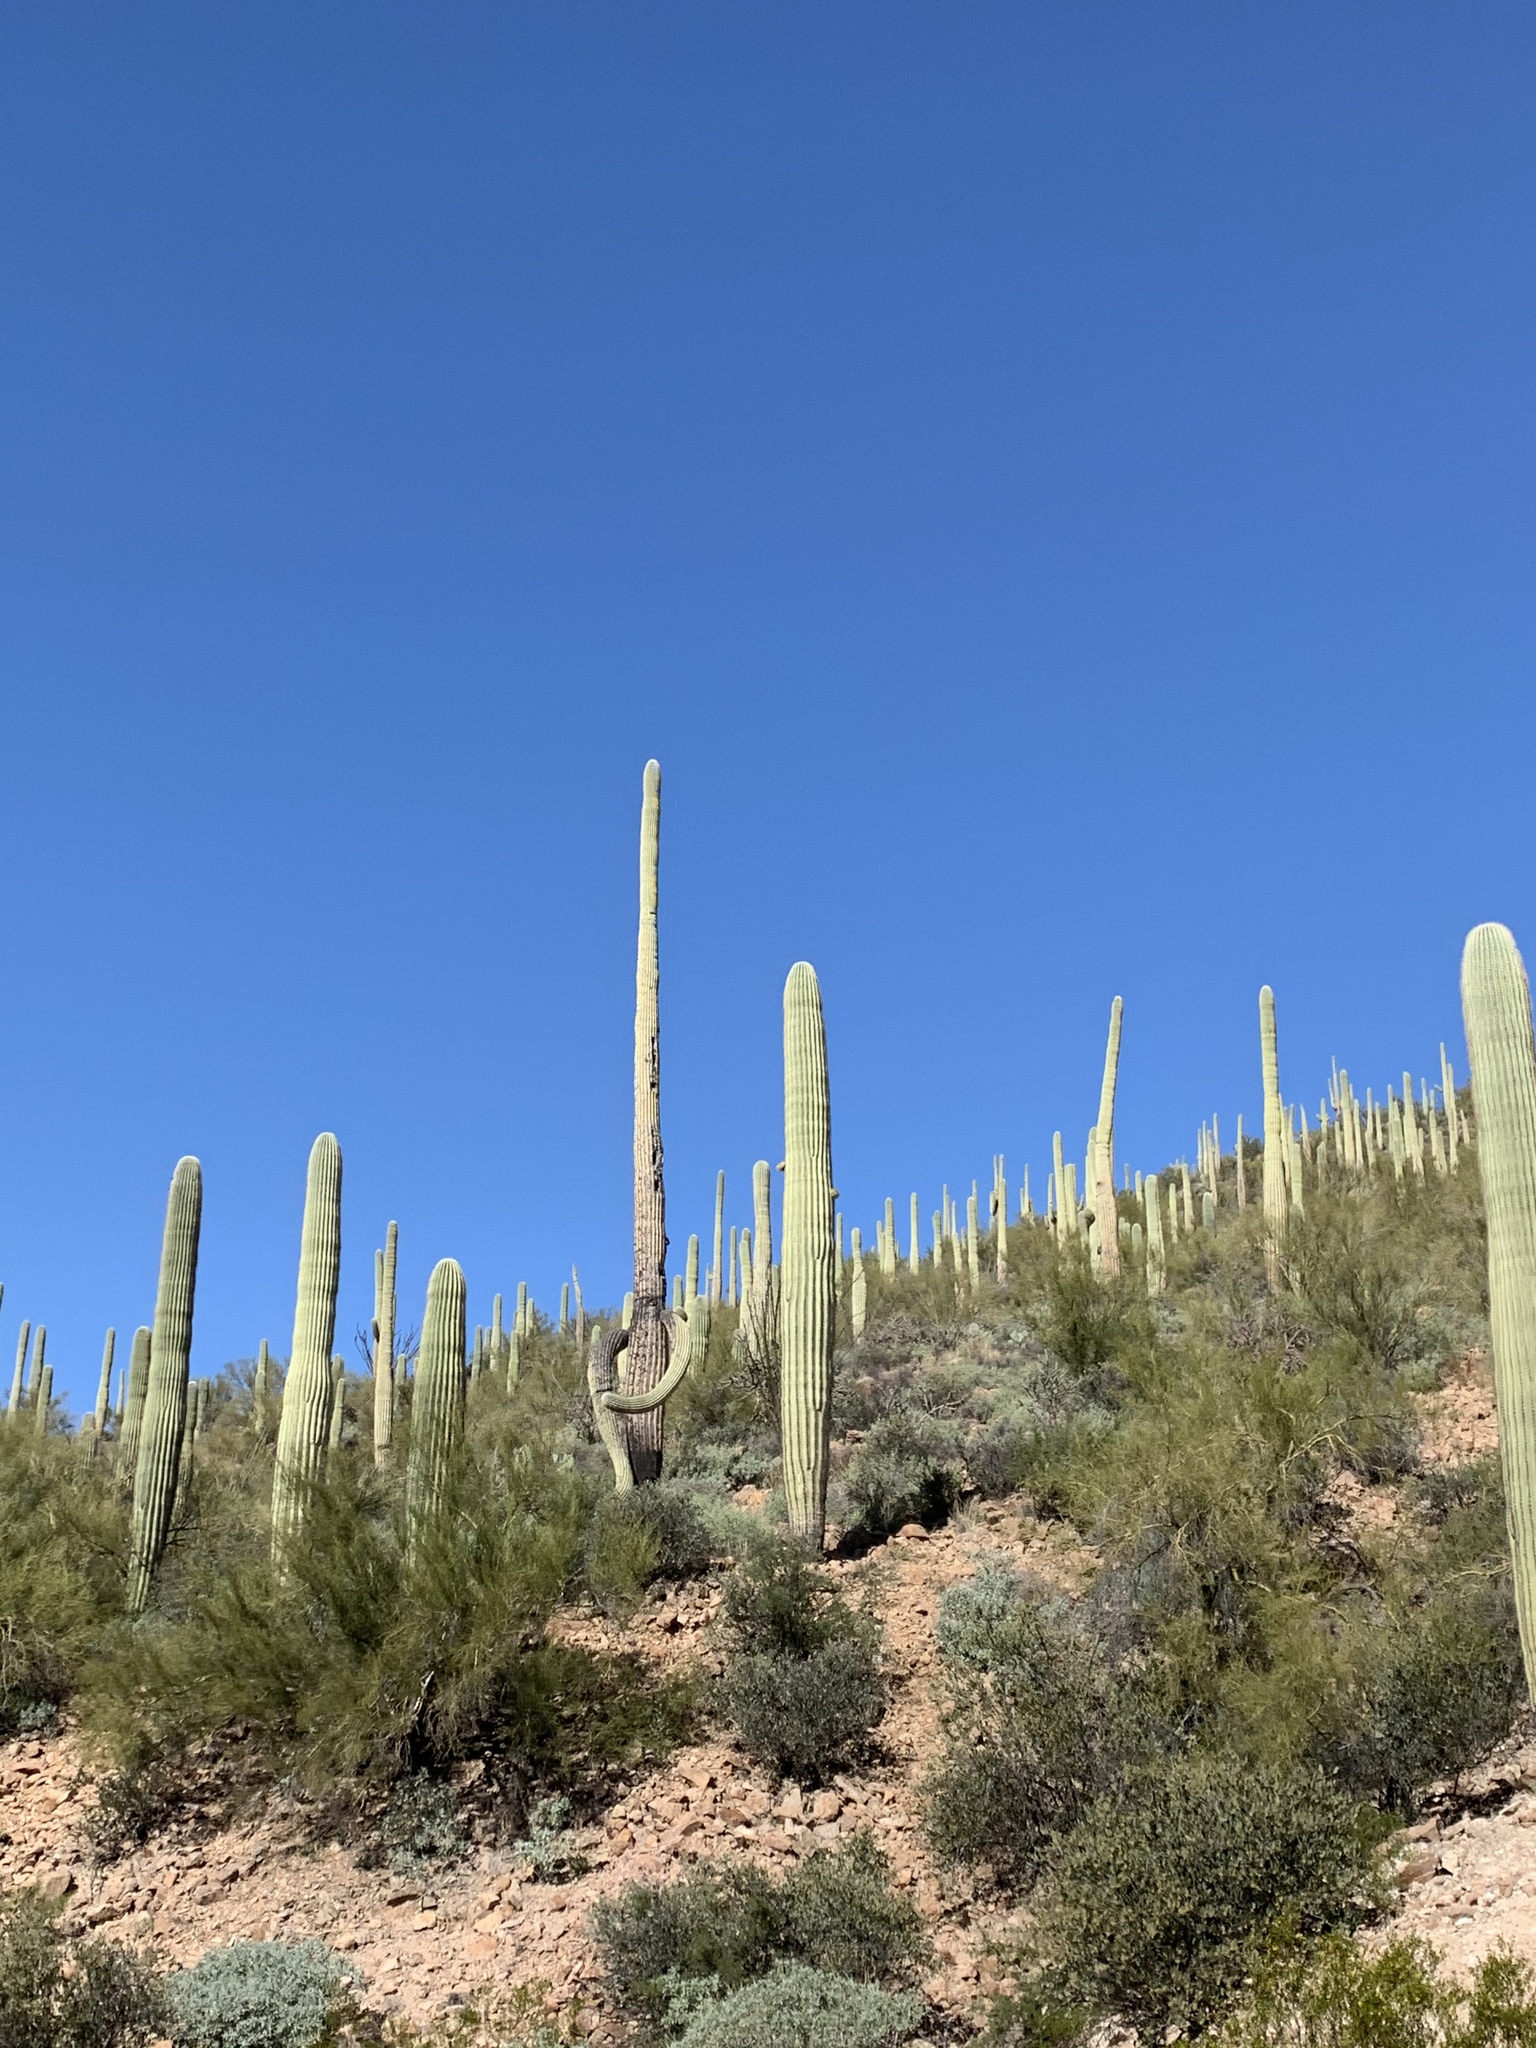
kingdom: Plantae
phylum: Tracheophyta
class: Magnoliopsida
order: Caryophyllales
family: Cactaceae
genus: Carnegiea
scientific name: Carnegiea gigantea
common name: Saguaro
